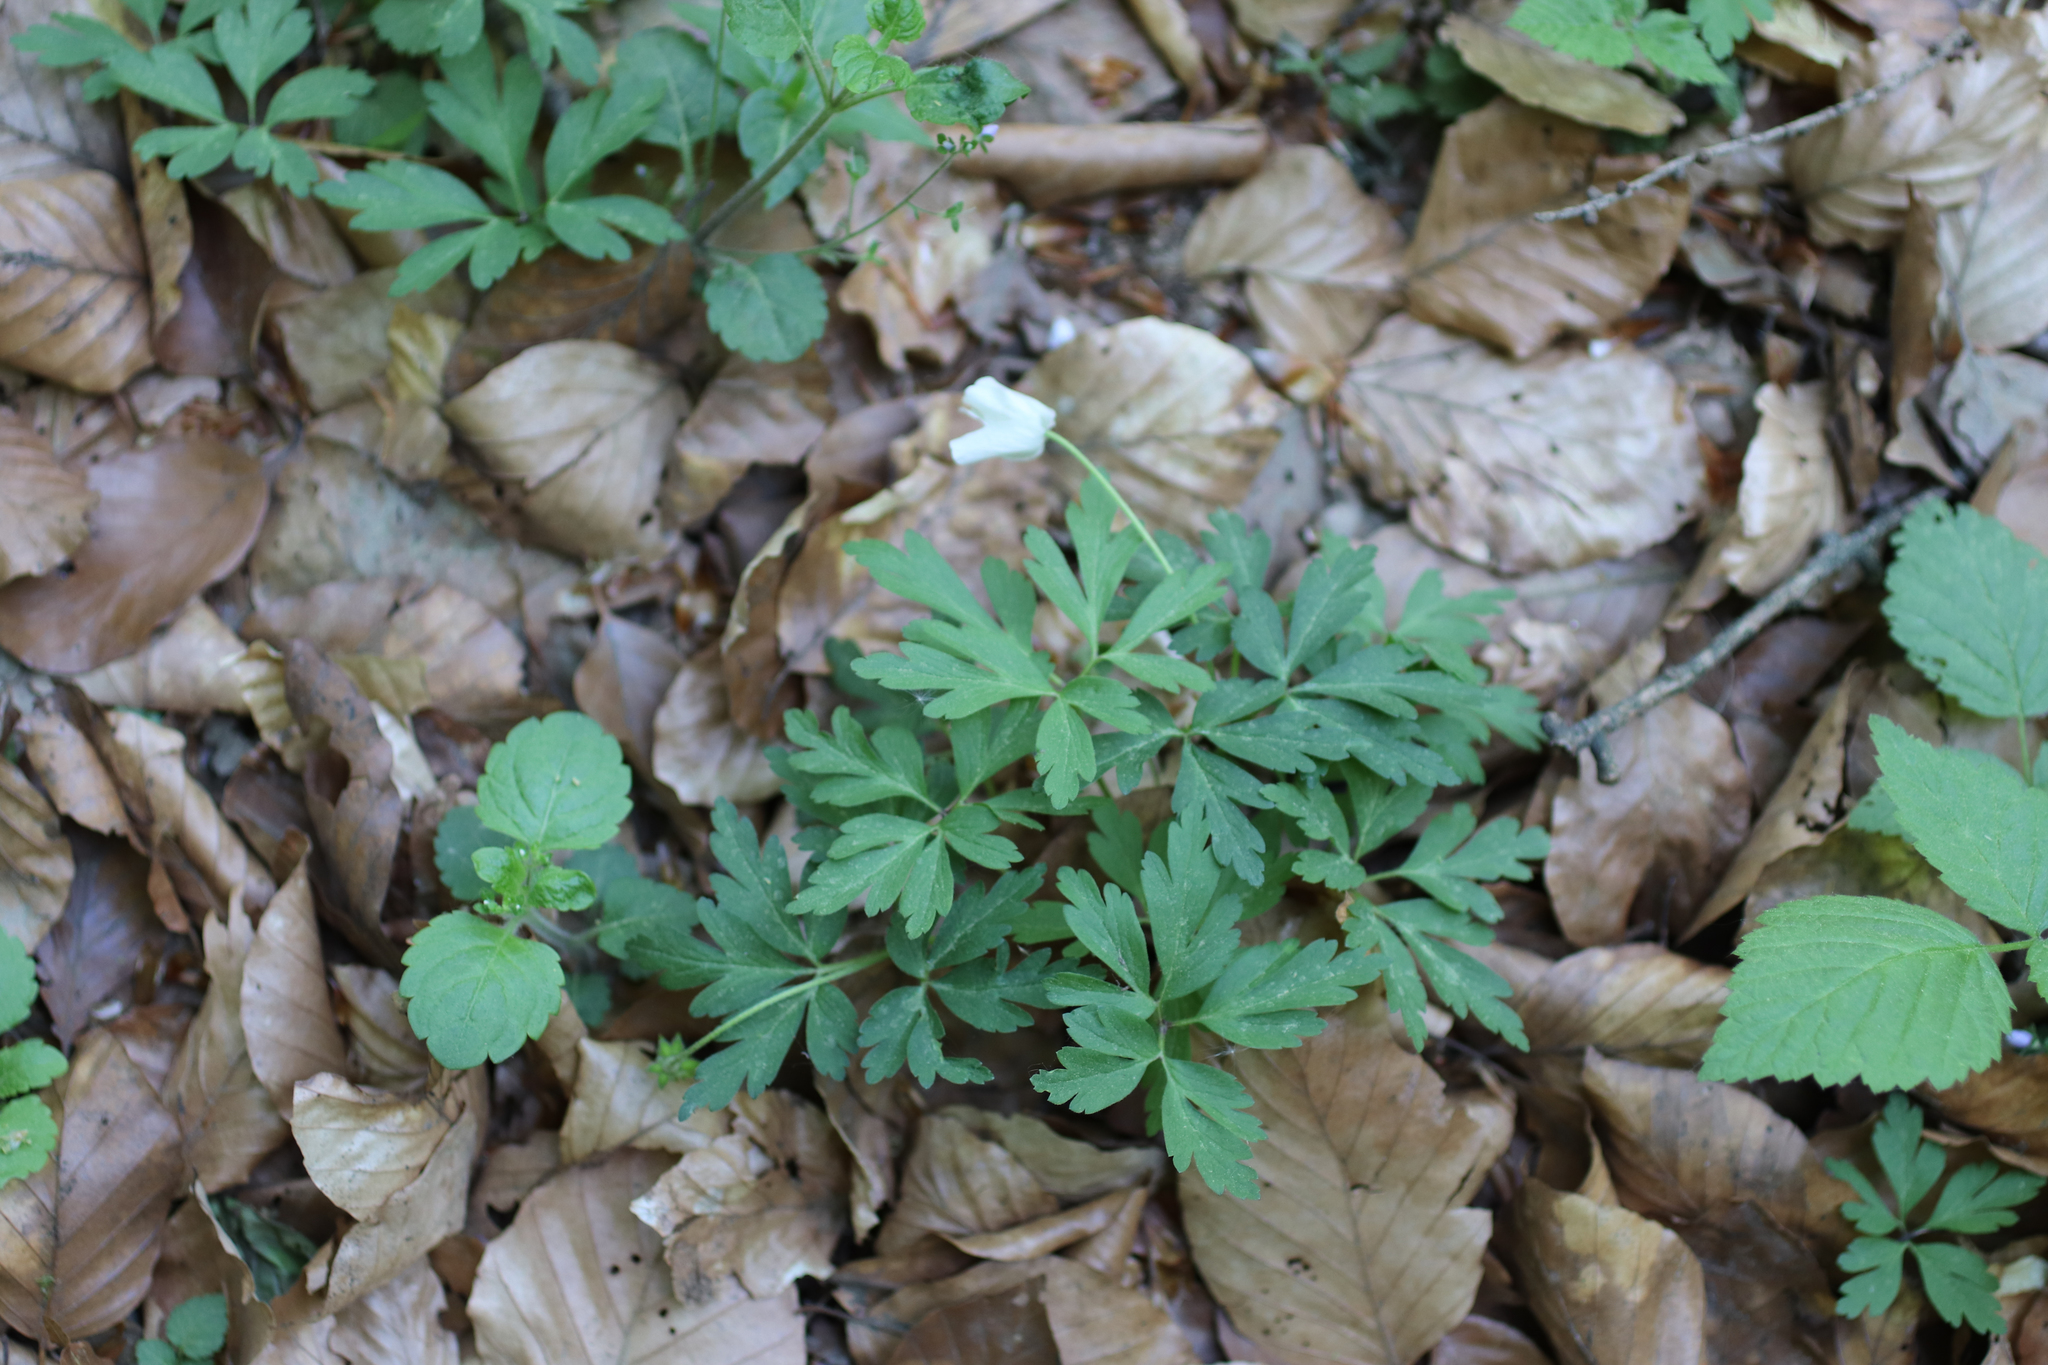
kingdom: Plantae
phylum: Tracheophyta
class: Magnoliopsida
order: Ranunculales
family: Ranunculaceae
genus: Anemone
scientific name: Anemone nemorosa
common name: Wood anemone
